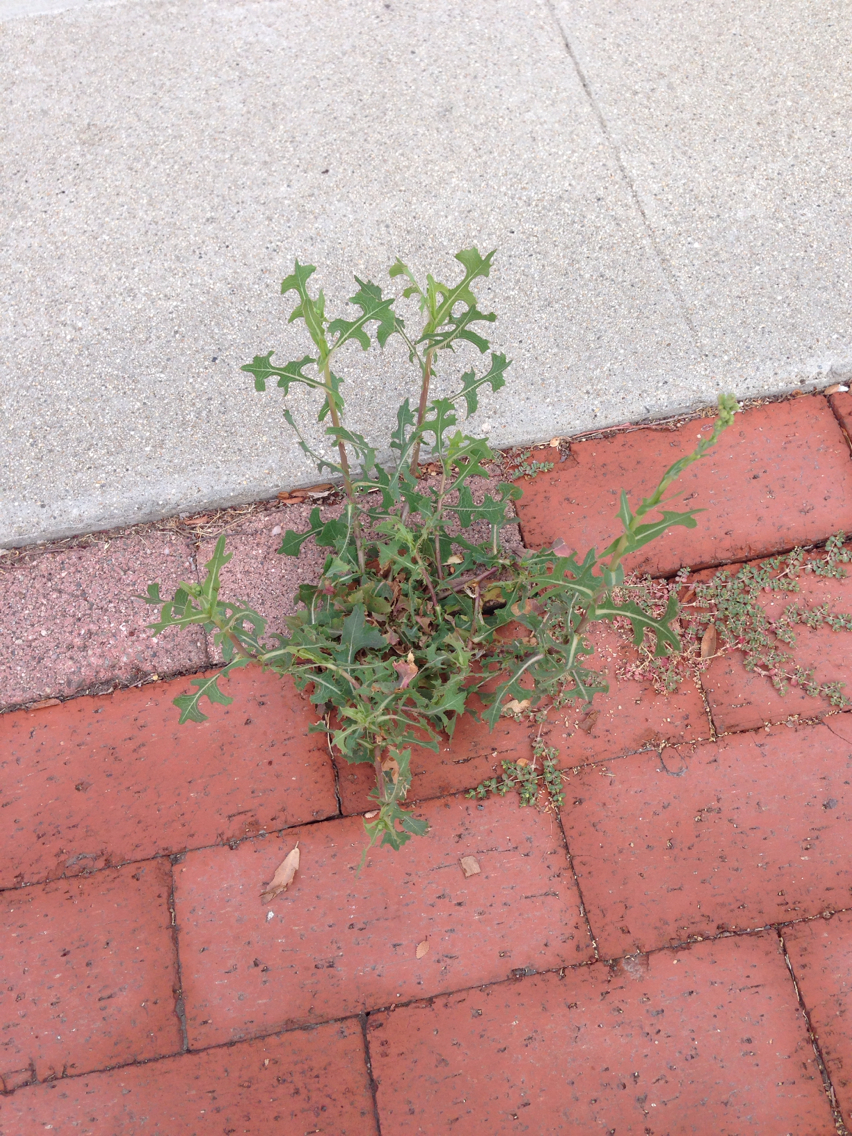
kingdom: Plantae
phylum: Tracheophyta
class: Magnoliopsida
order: Asterales
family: Asteraceae
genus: Lactuca
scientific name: Lactuca serriola
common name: Prickly lettuce
